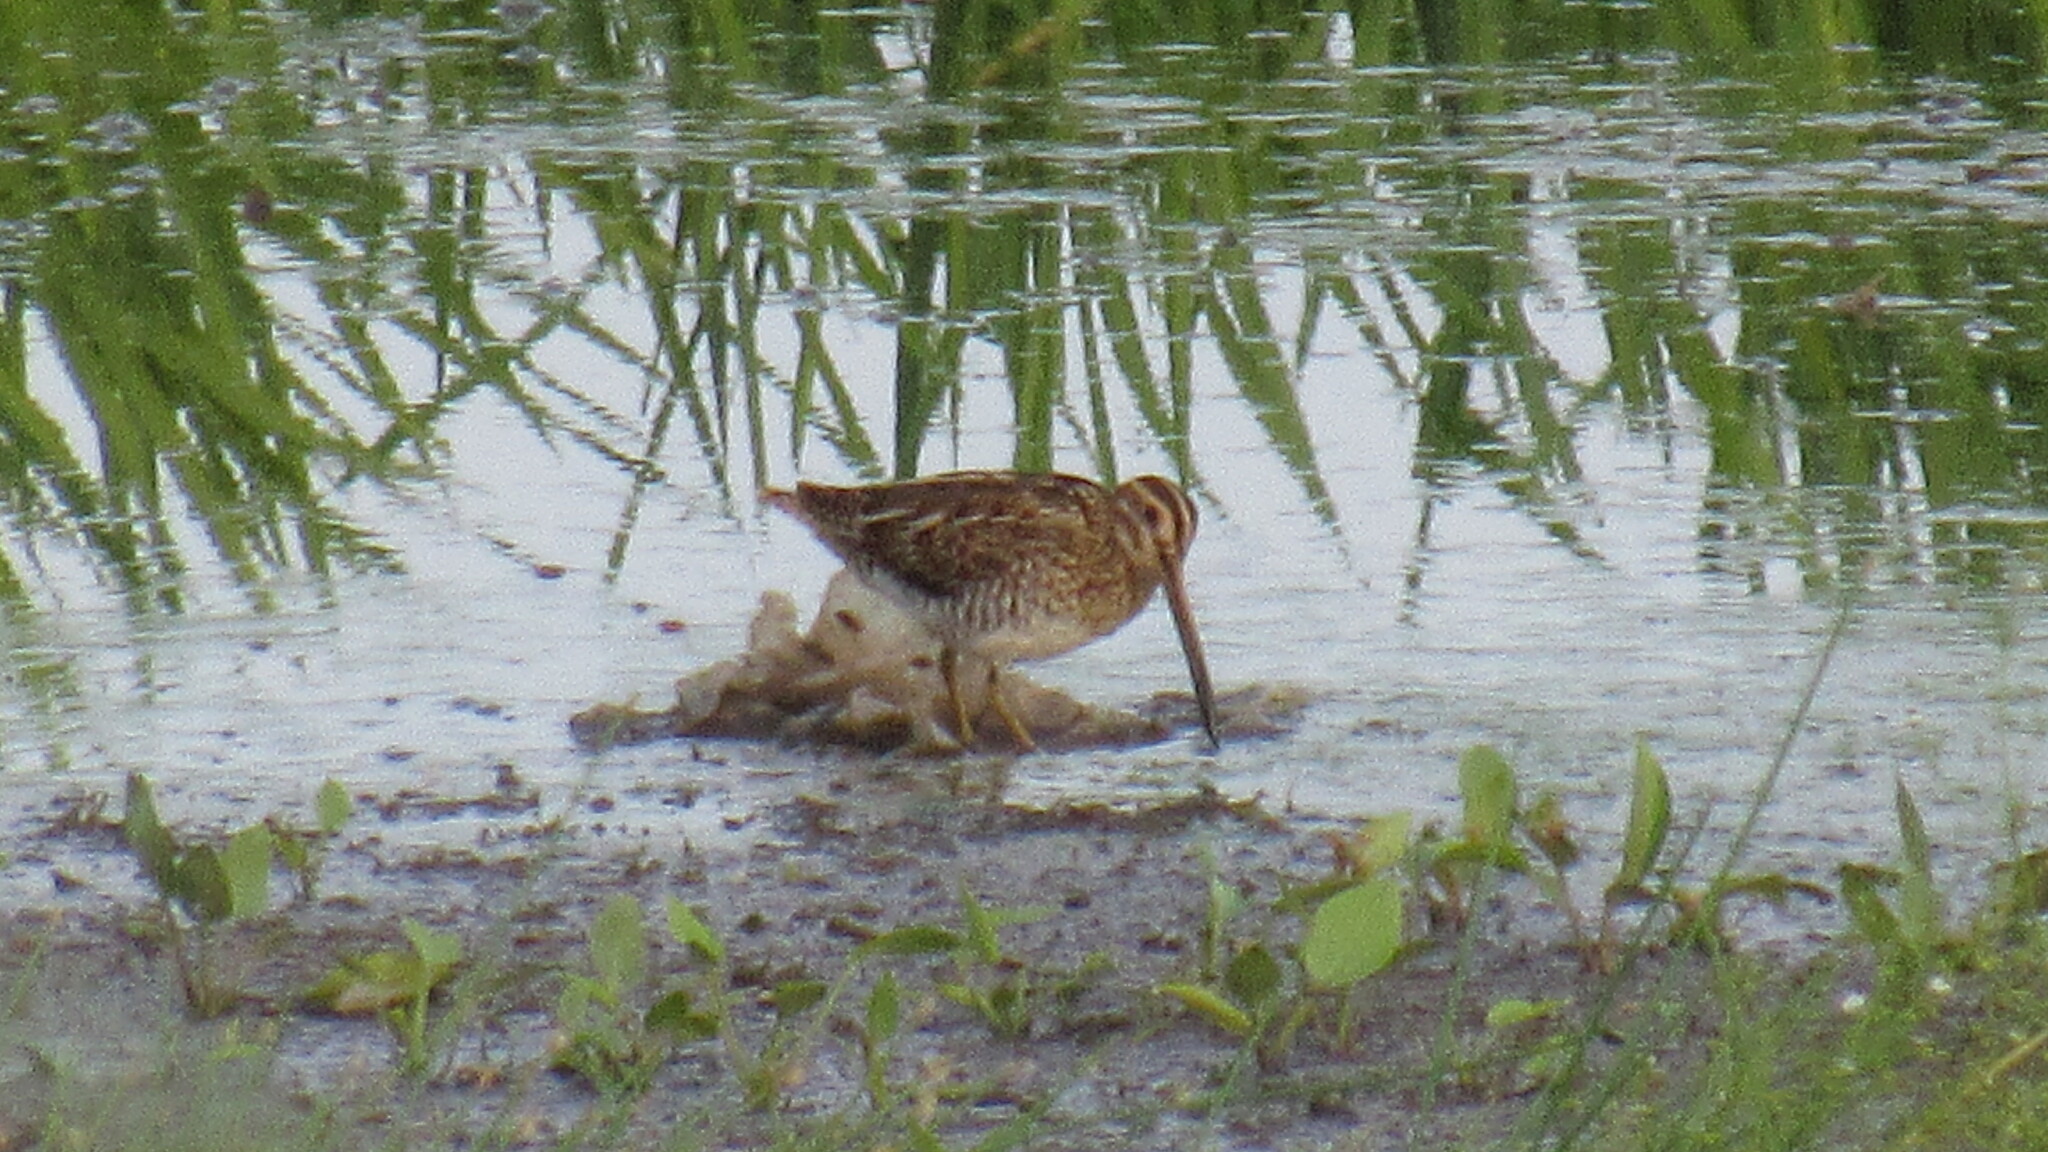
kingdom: Animalia
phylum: Chordata
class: Aves
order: Charadriiformes
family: Scolopacidae
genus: Gallinago
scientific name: Gallinago gallinago
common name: Common snipe
